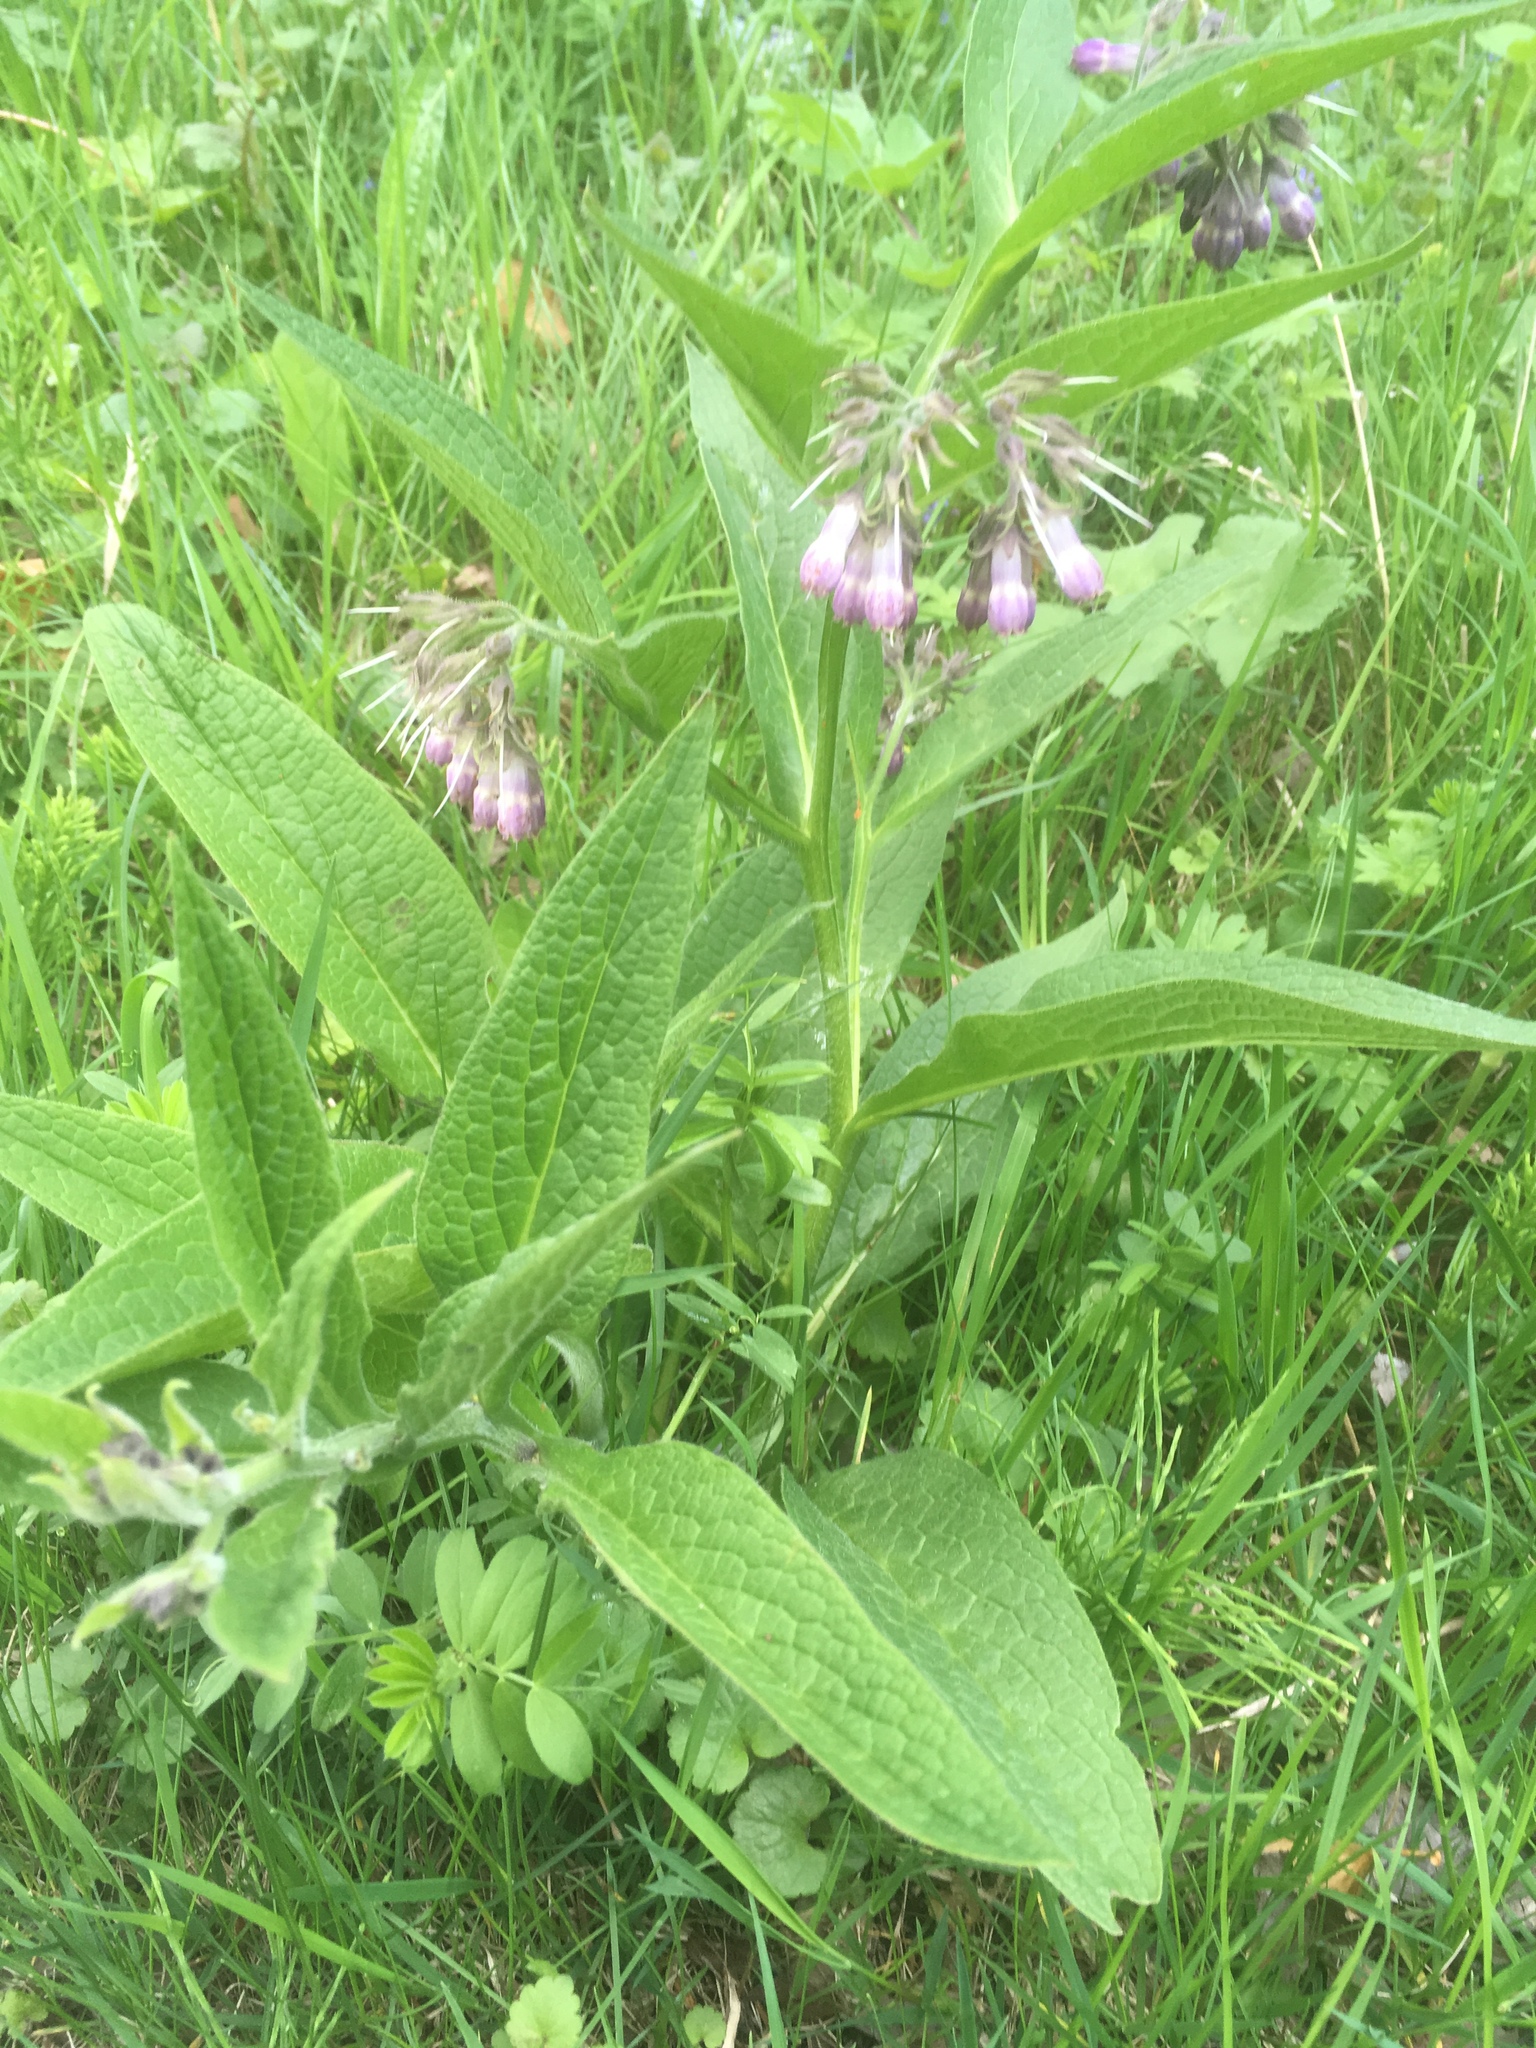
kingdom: Plantae
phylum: Tracheophyta
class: Magnoliopsida
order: Boraginales
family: Boraginaceae
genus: Symphytum
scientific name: Symphytum officinale
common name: Common comfrey
